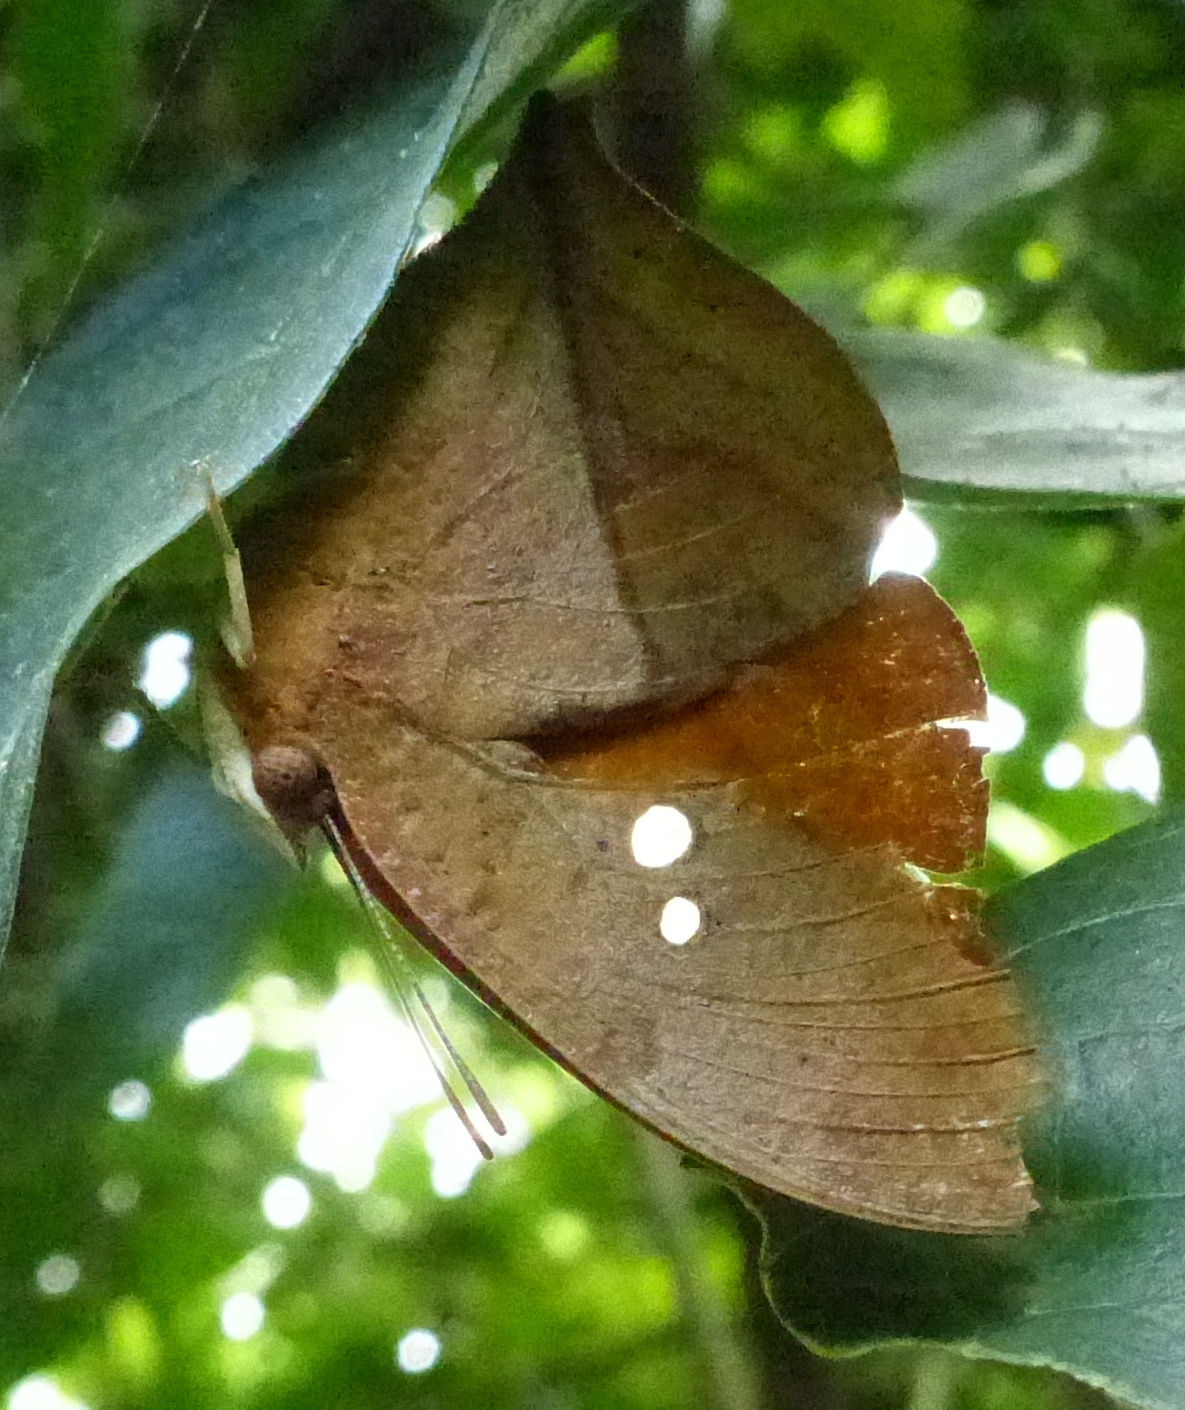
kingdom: Animalia
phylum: Arthropoda
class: Insecta
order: Lepidoptera
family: Nymphalidae
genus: Zaretis
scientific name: Zaretis strigosus
